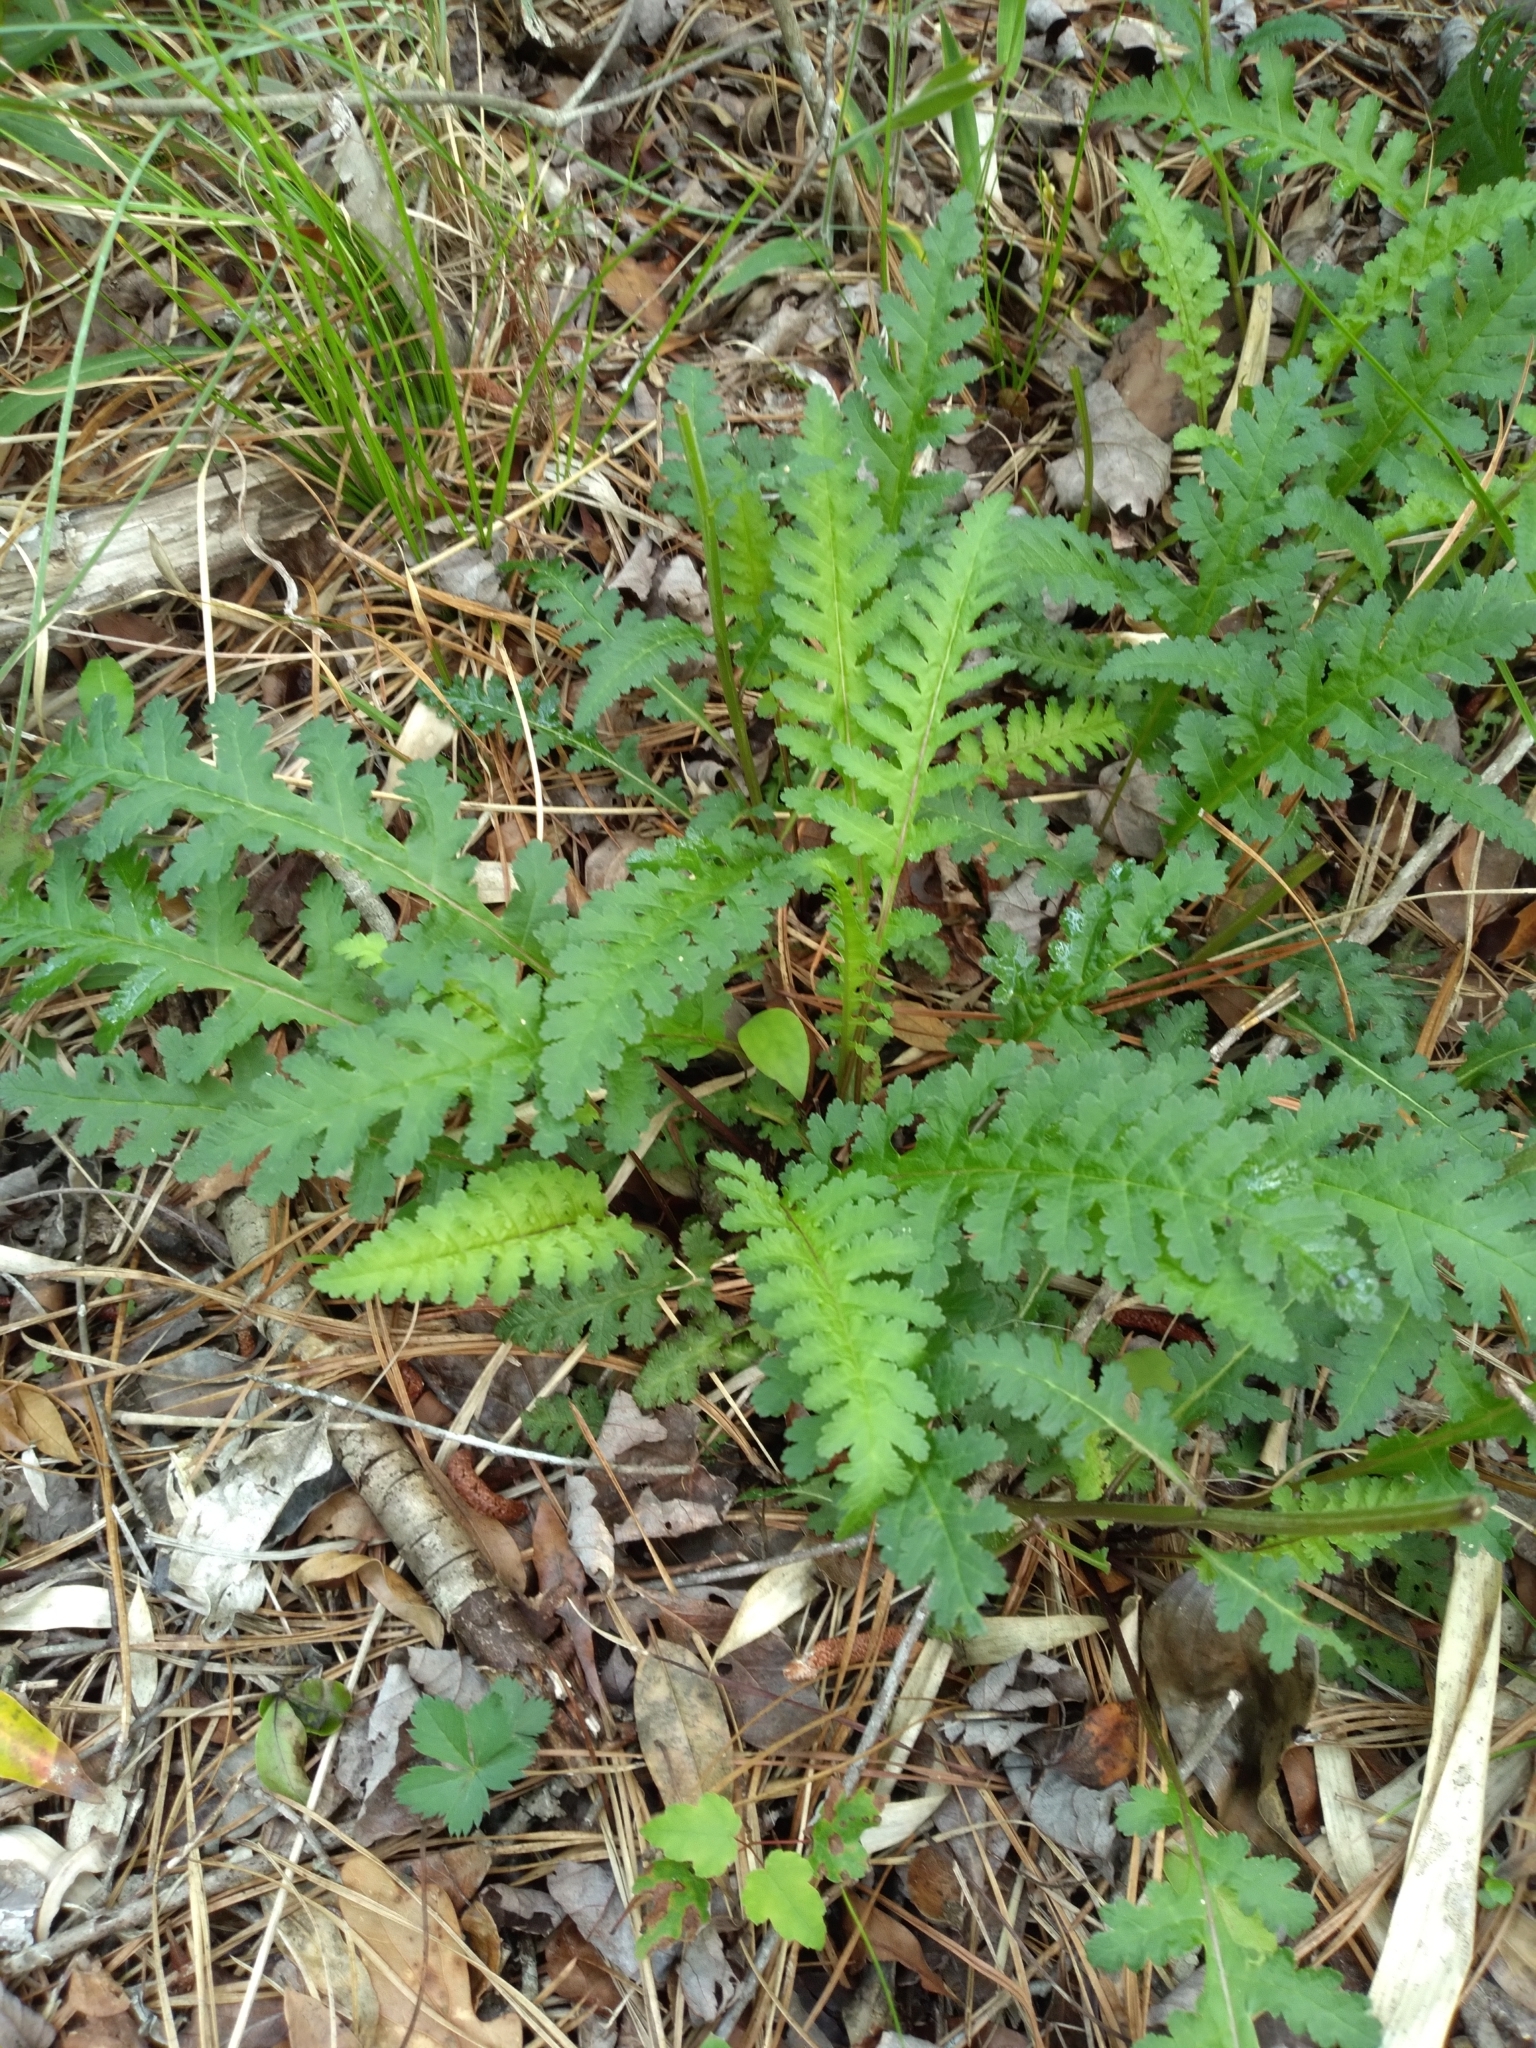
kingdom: Plantae
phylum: Tracheophyta
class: Magnoliopsida
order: Lamiales
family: Orobanchaceae
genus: Pedicularis
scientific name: Pedicularis canadensis
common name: Early lousewort
